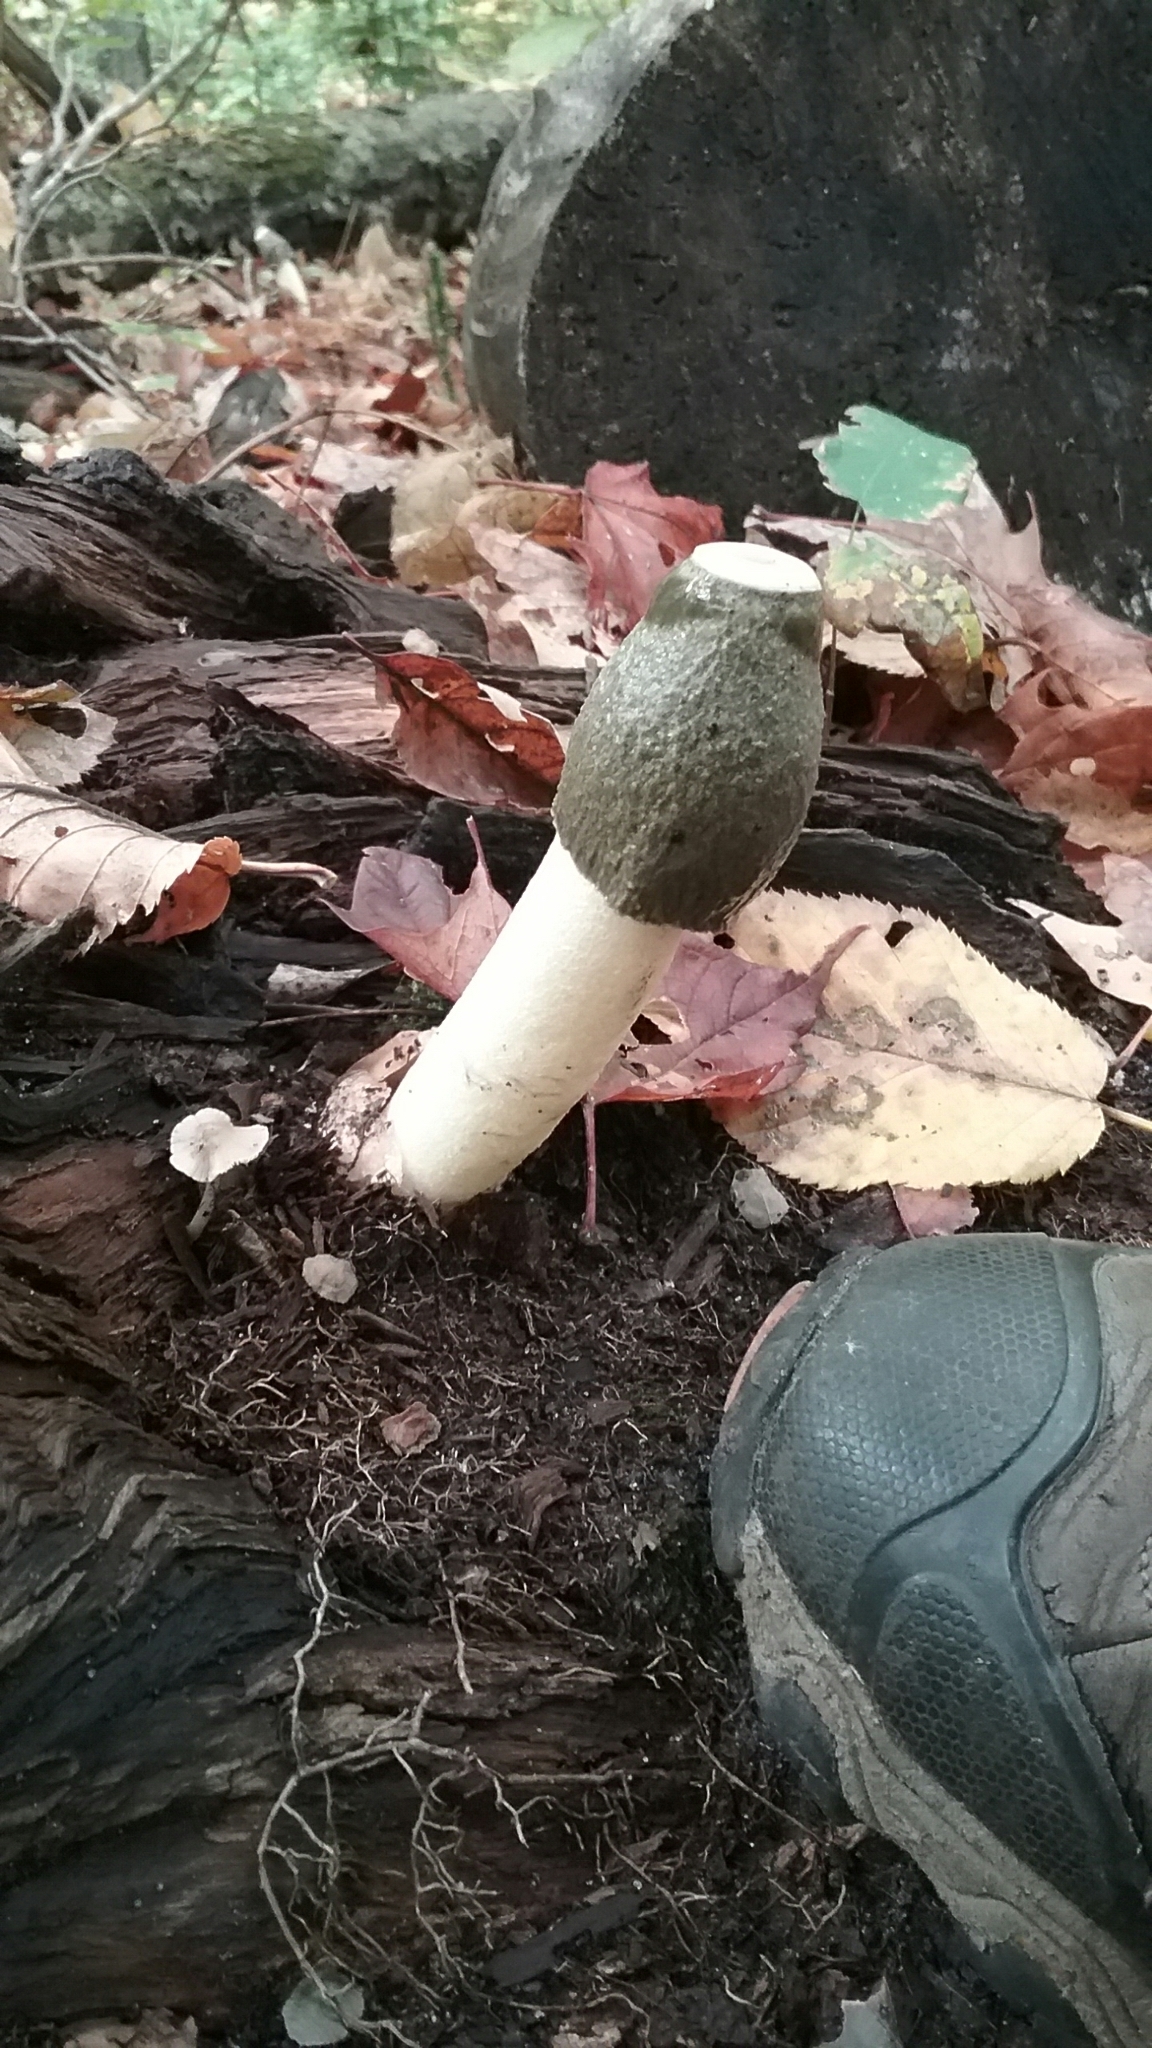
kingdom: Fungi
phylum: Basidiomycota
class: Agaricomycetes
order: Phallales
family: Phallaceae
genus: Phallus
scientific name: Phallus ravenelii
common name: Ravenel's stinkhorn
